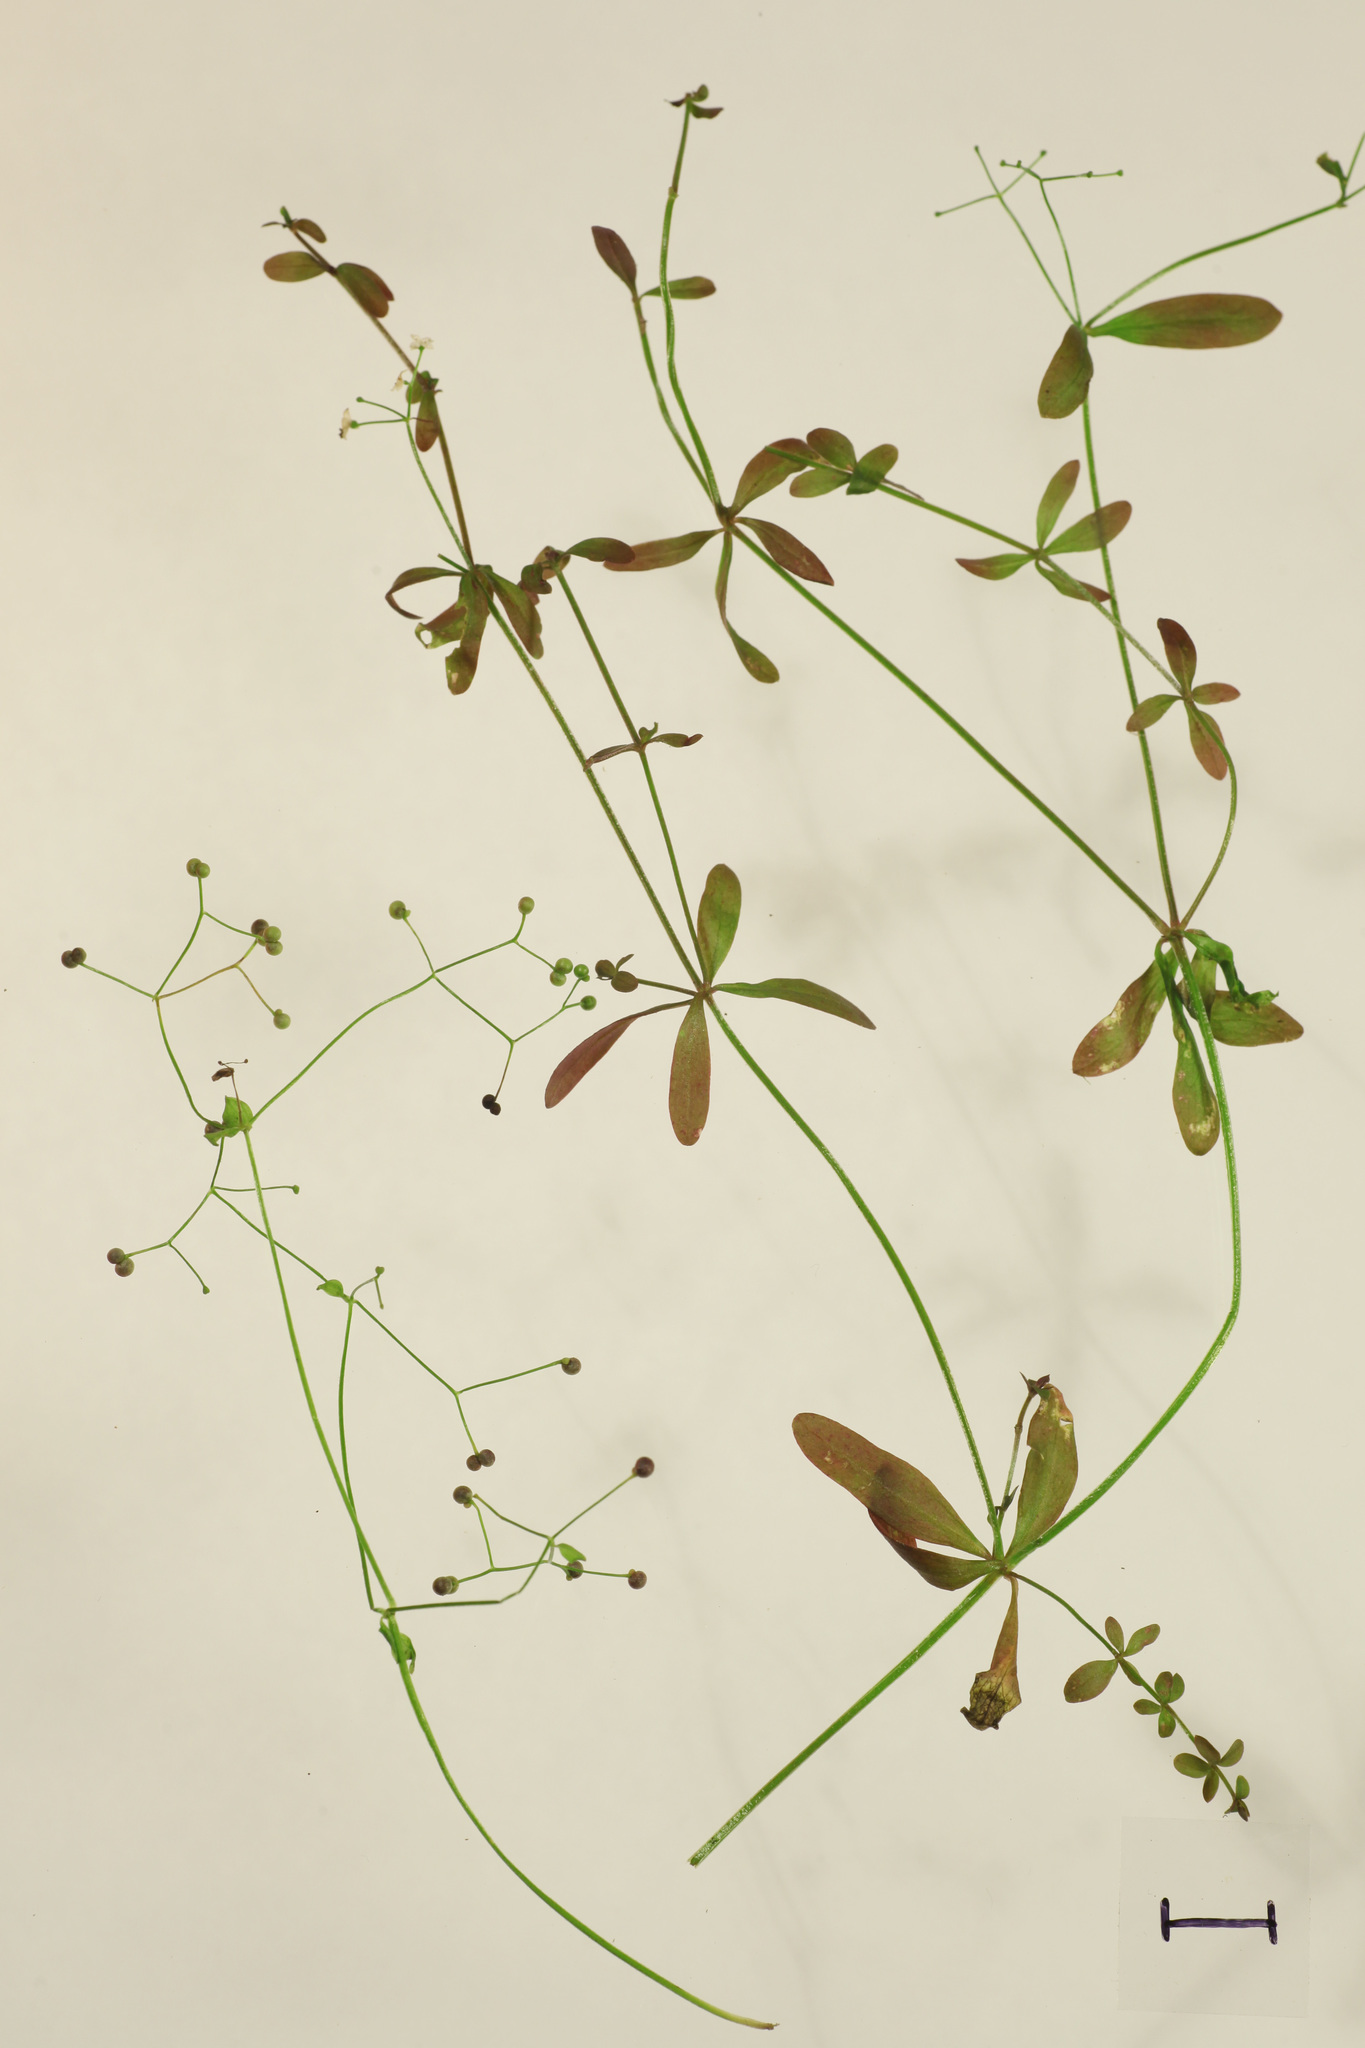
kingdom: Plantae
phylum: Tracheophyta
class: Magnoliopsida
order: Gentianales
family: Rubiaceae
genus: Galium
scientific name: Galium palustre
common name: Common marsh-bedstraw
